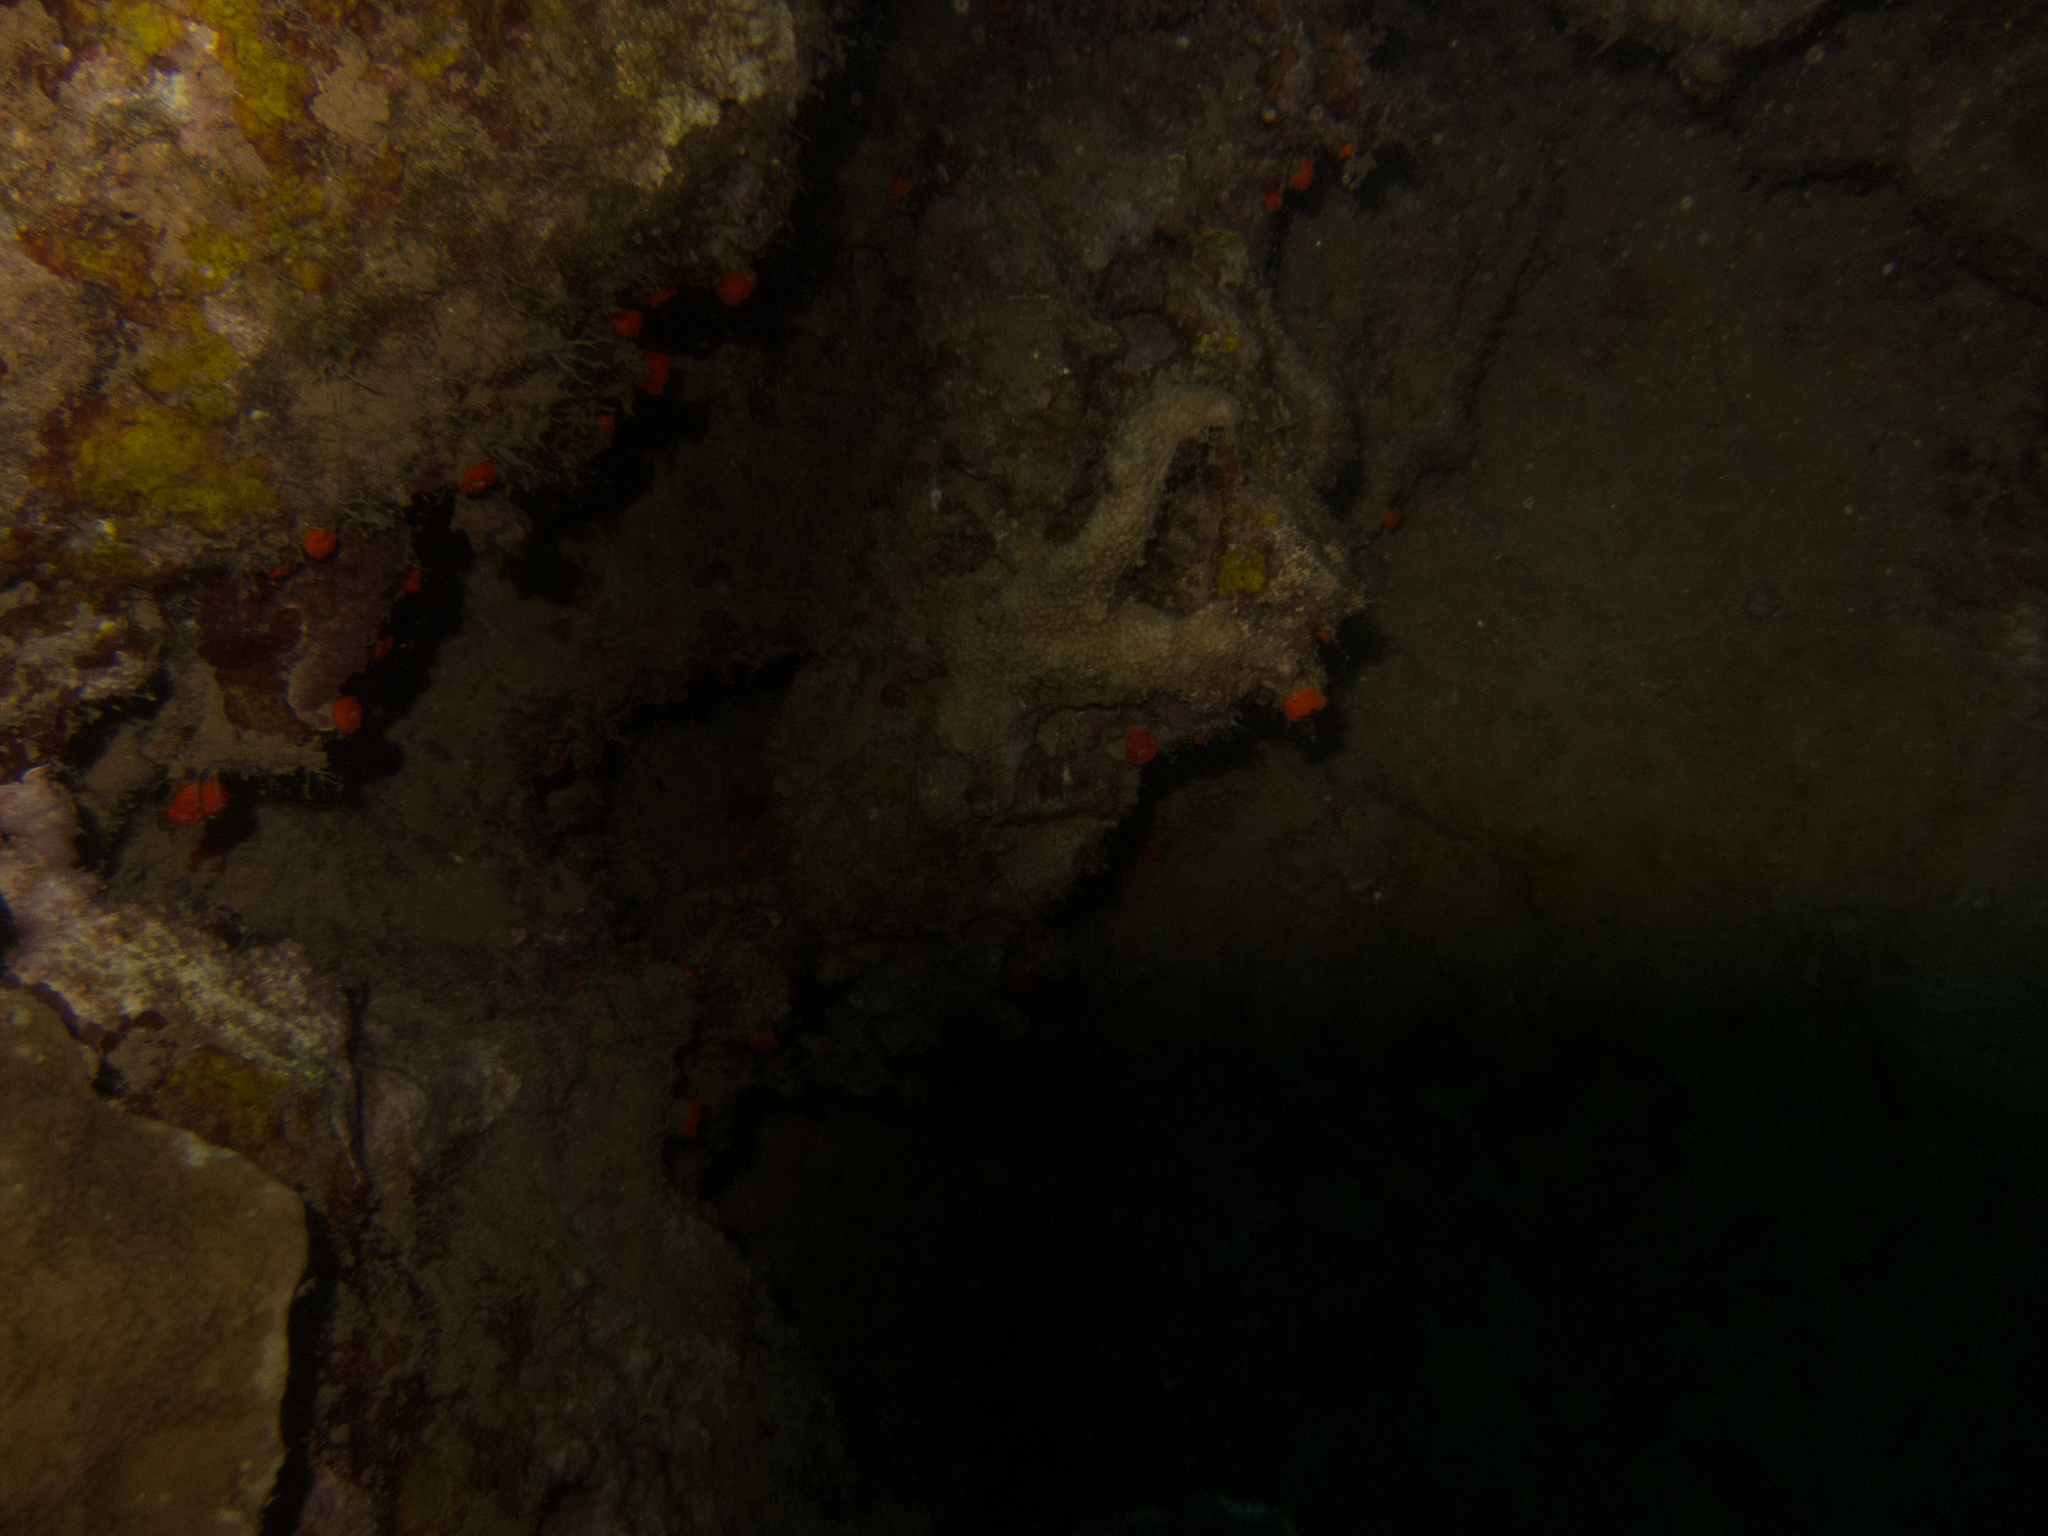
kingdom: Animalia
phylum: Cnidaria
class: Anthozoa
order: Scleractinia
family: Dendrophylliidae
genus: Tubastraea
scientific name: Tubastraea coccinea
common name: Orange cup coral
